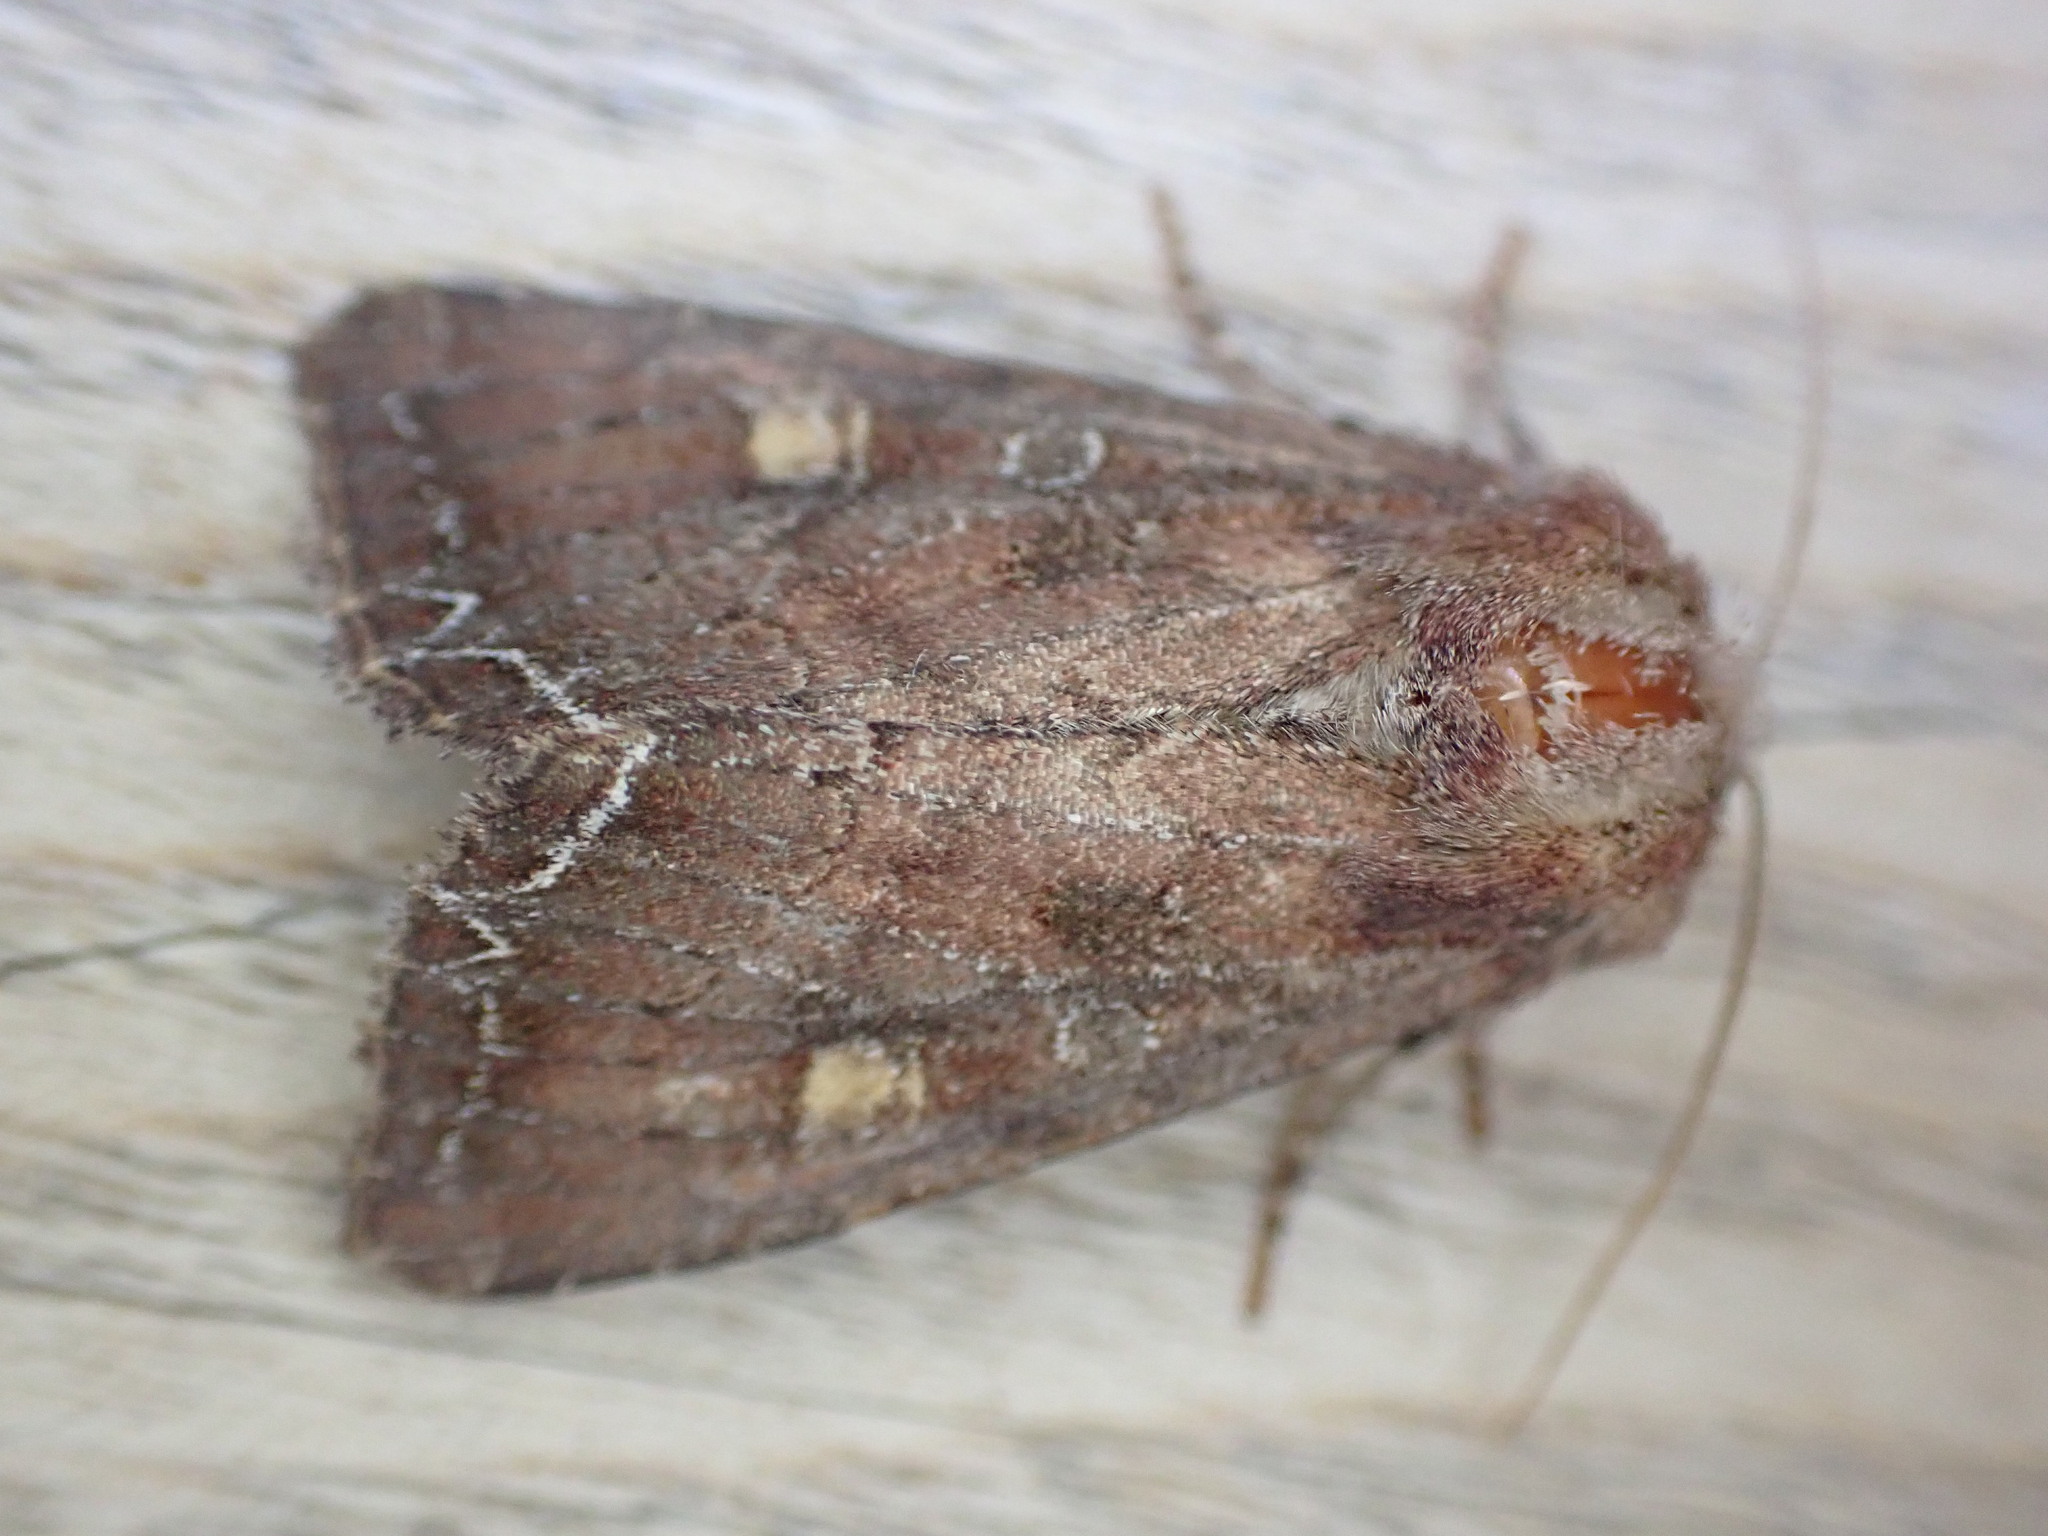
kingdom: Animalia
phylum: Arthropoda
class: Insecta
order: Lepidoptera
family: Noctuidae
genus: Lacanobia
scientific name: Lacanobia oleracea
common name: Bright-line brown-eye
